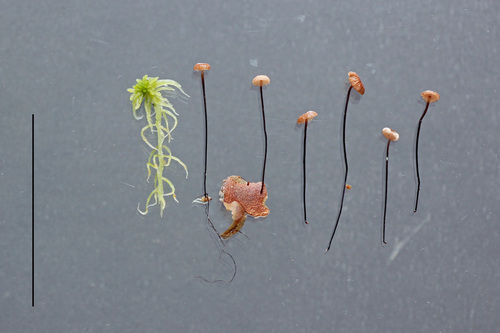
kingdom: Fungi
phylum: Basidiomycota
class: Agaricomycetes
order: Agaricales
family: Omphalotaceae
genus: Gymnopus
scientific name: Gymnopus androsaceus
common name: Horse-hair fungus
